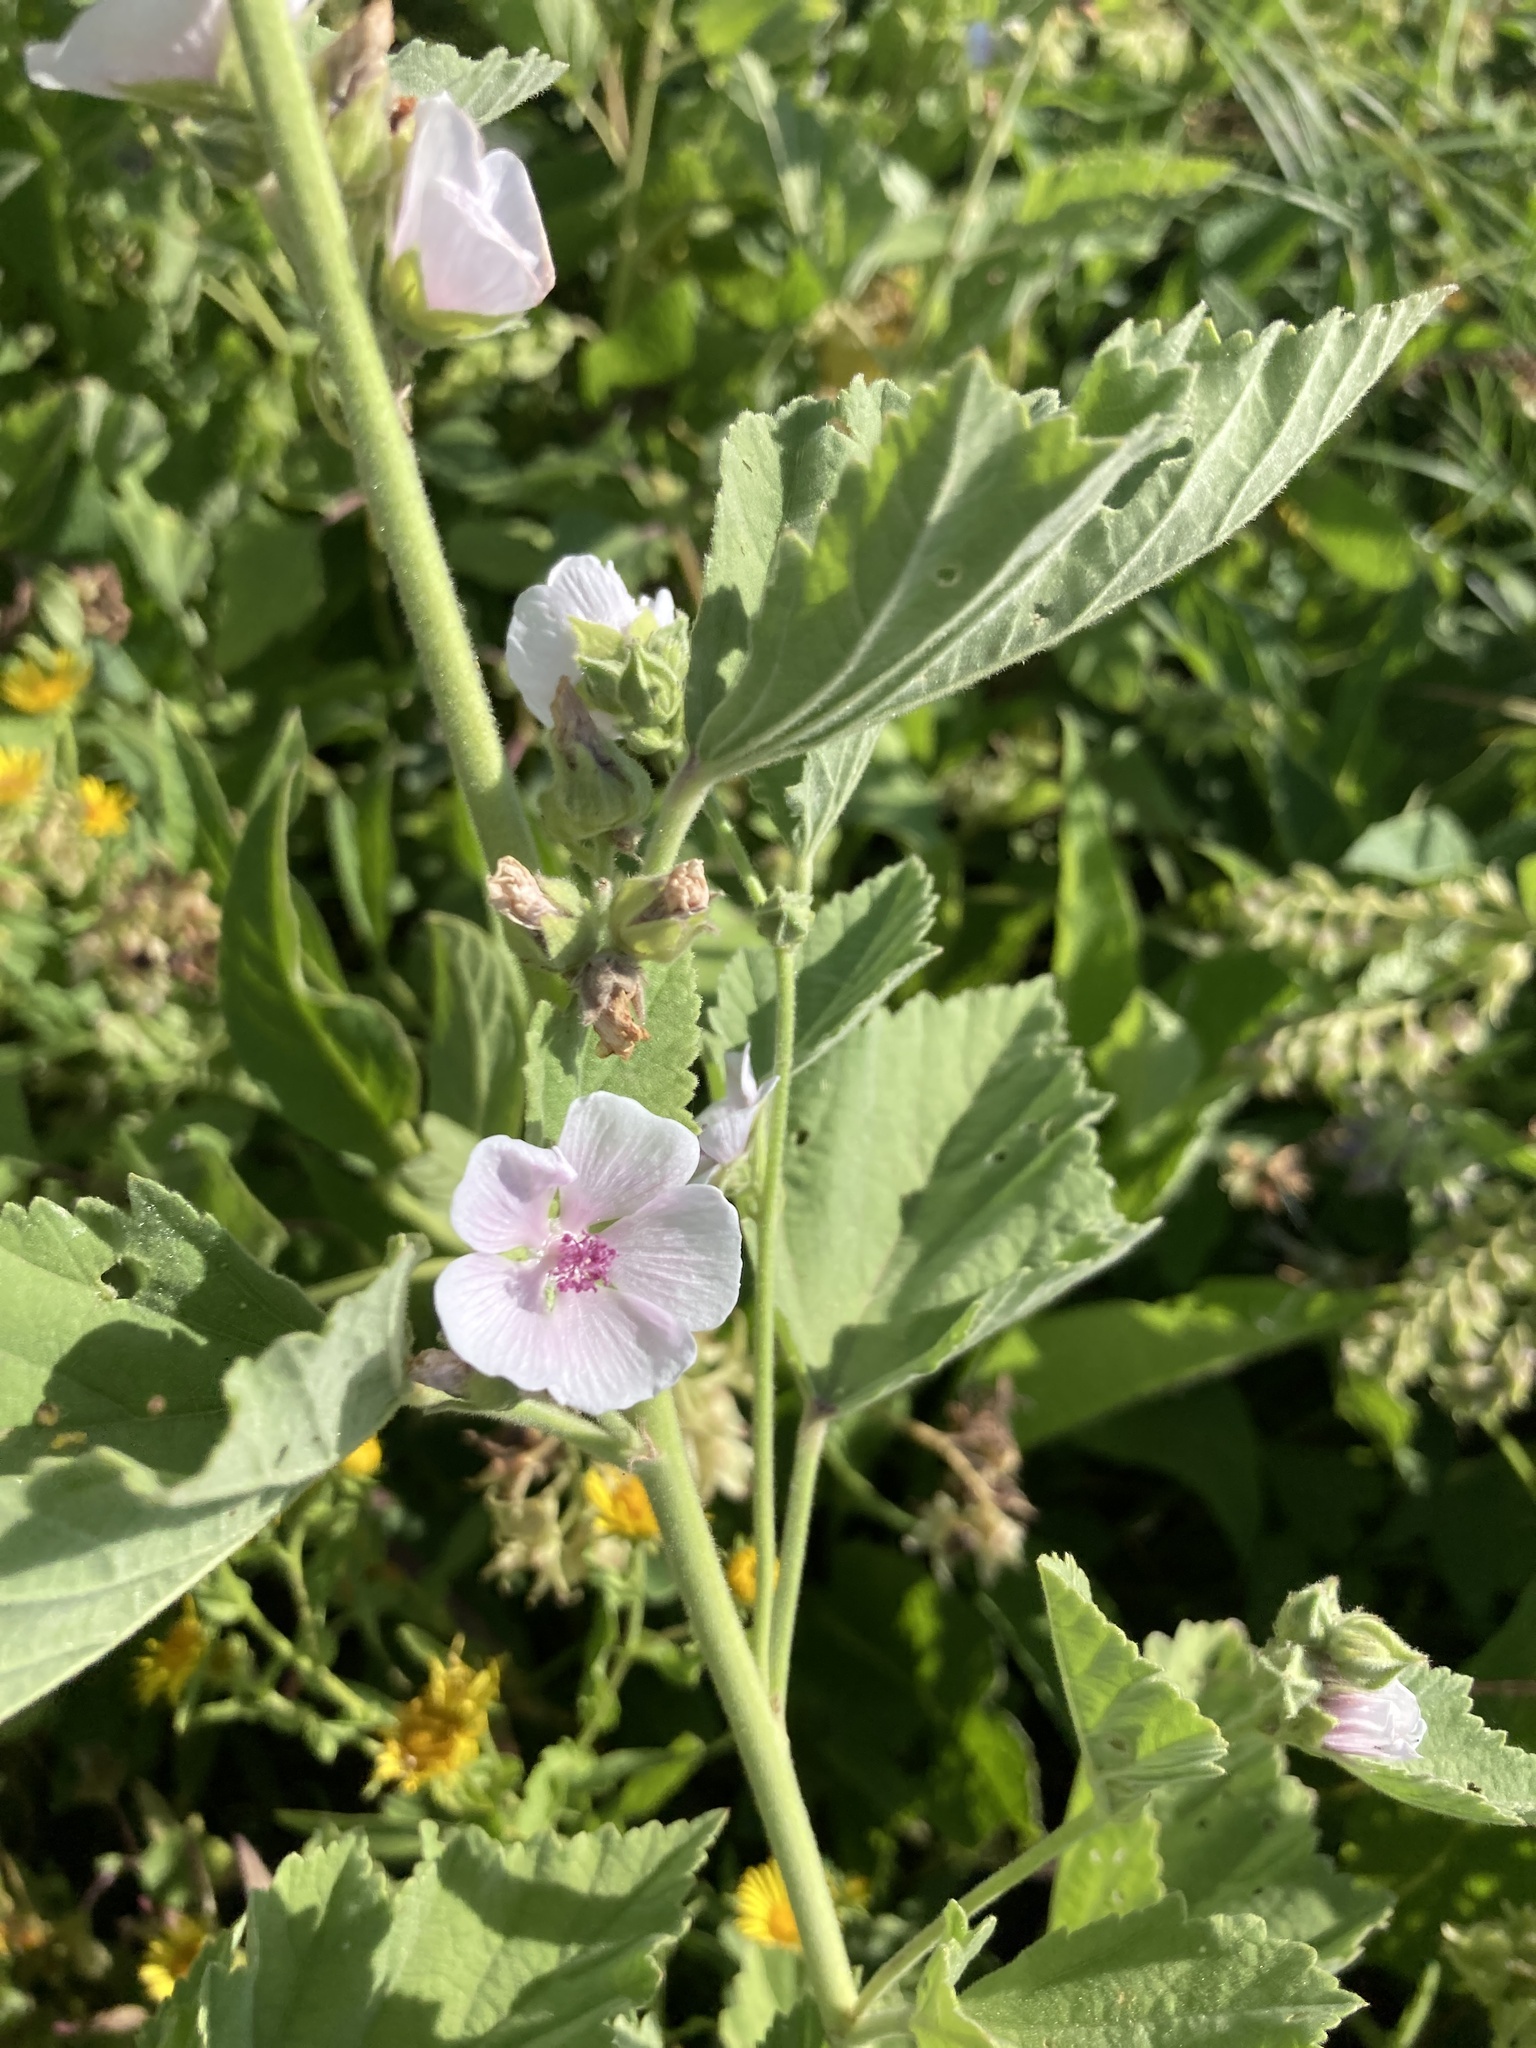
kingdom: Plantae
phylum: Tracheophyta
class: Magnoliopsida
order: Malvales
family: Malvaceae
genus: Althaea
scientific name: Althaea officinalis
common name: Marsh-mallow
